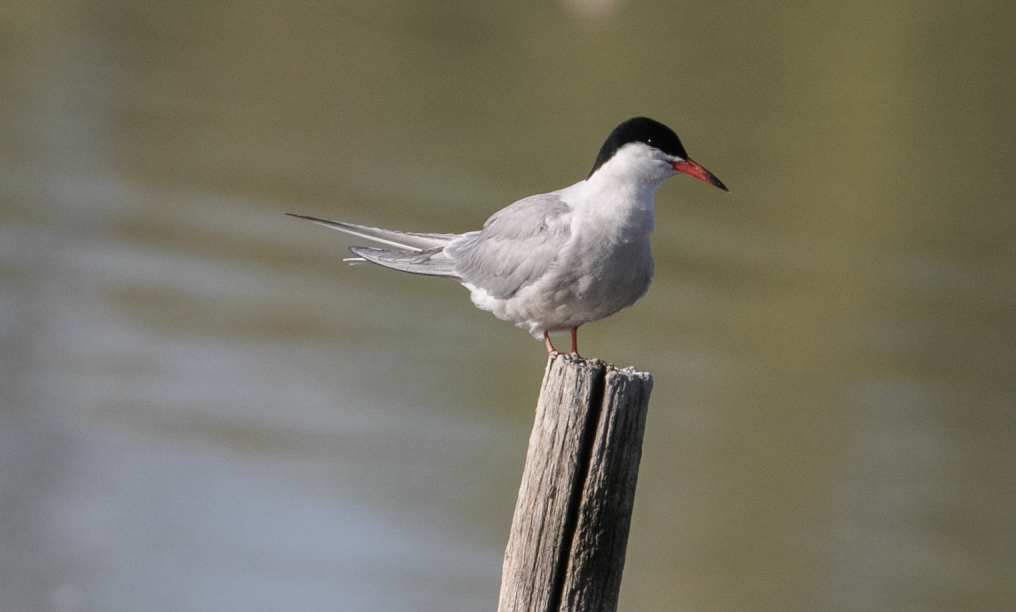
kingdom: Animalia
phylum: Chordata
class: Aves
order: Charadriiformes
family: Laridae
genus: Sterna
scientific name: Sterna hirundo
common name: Common tern
